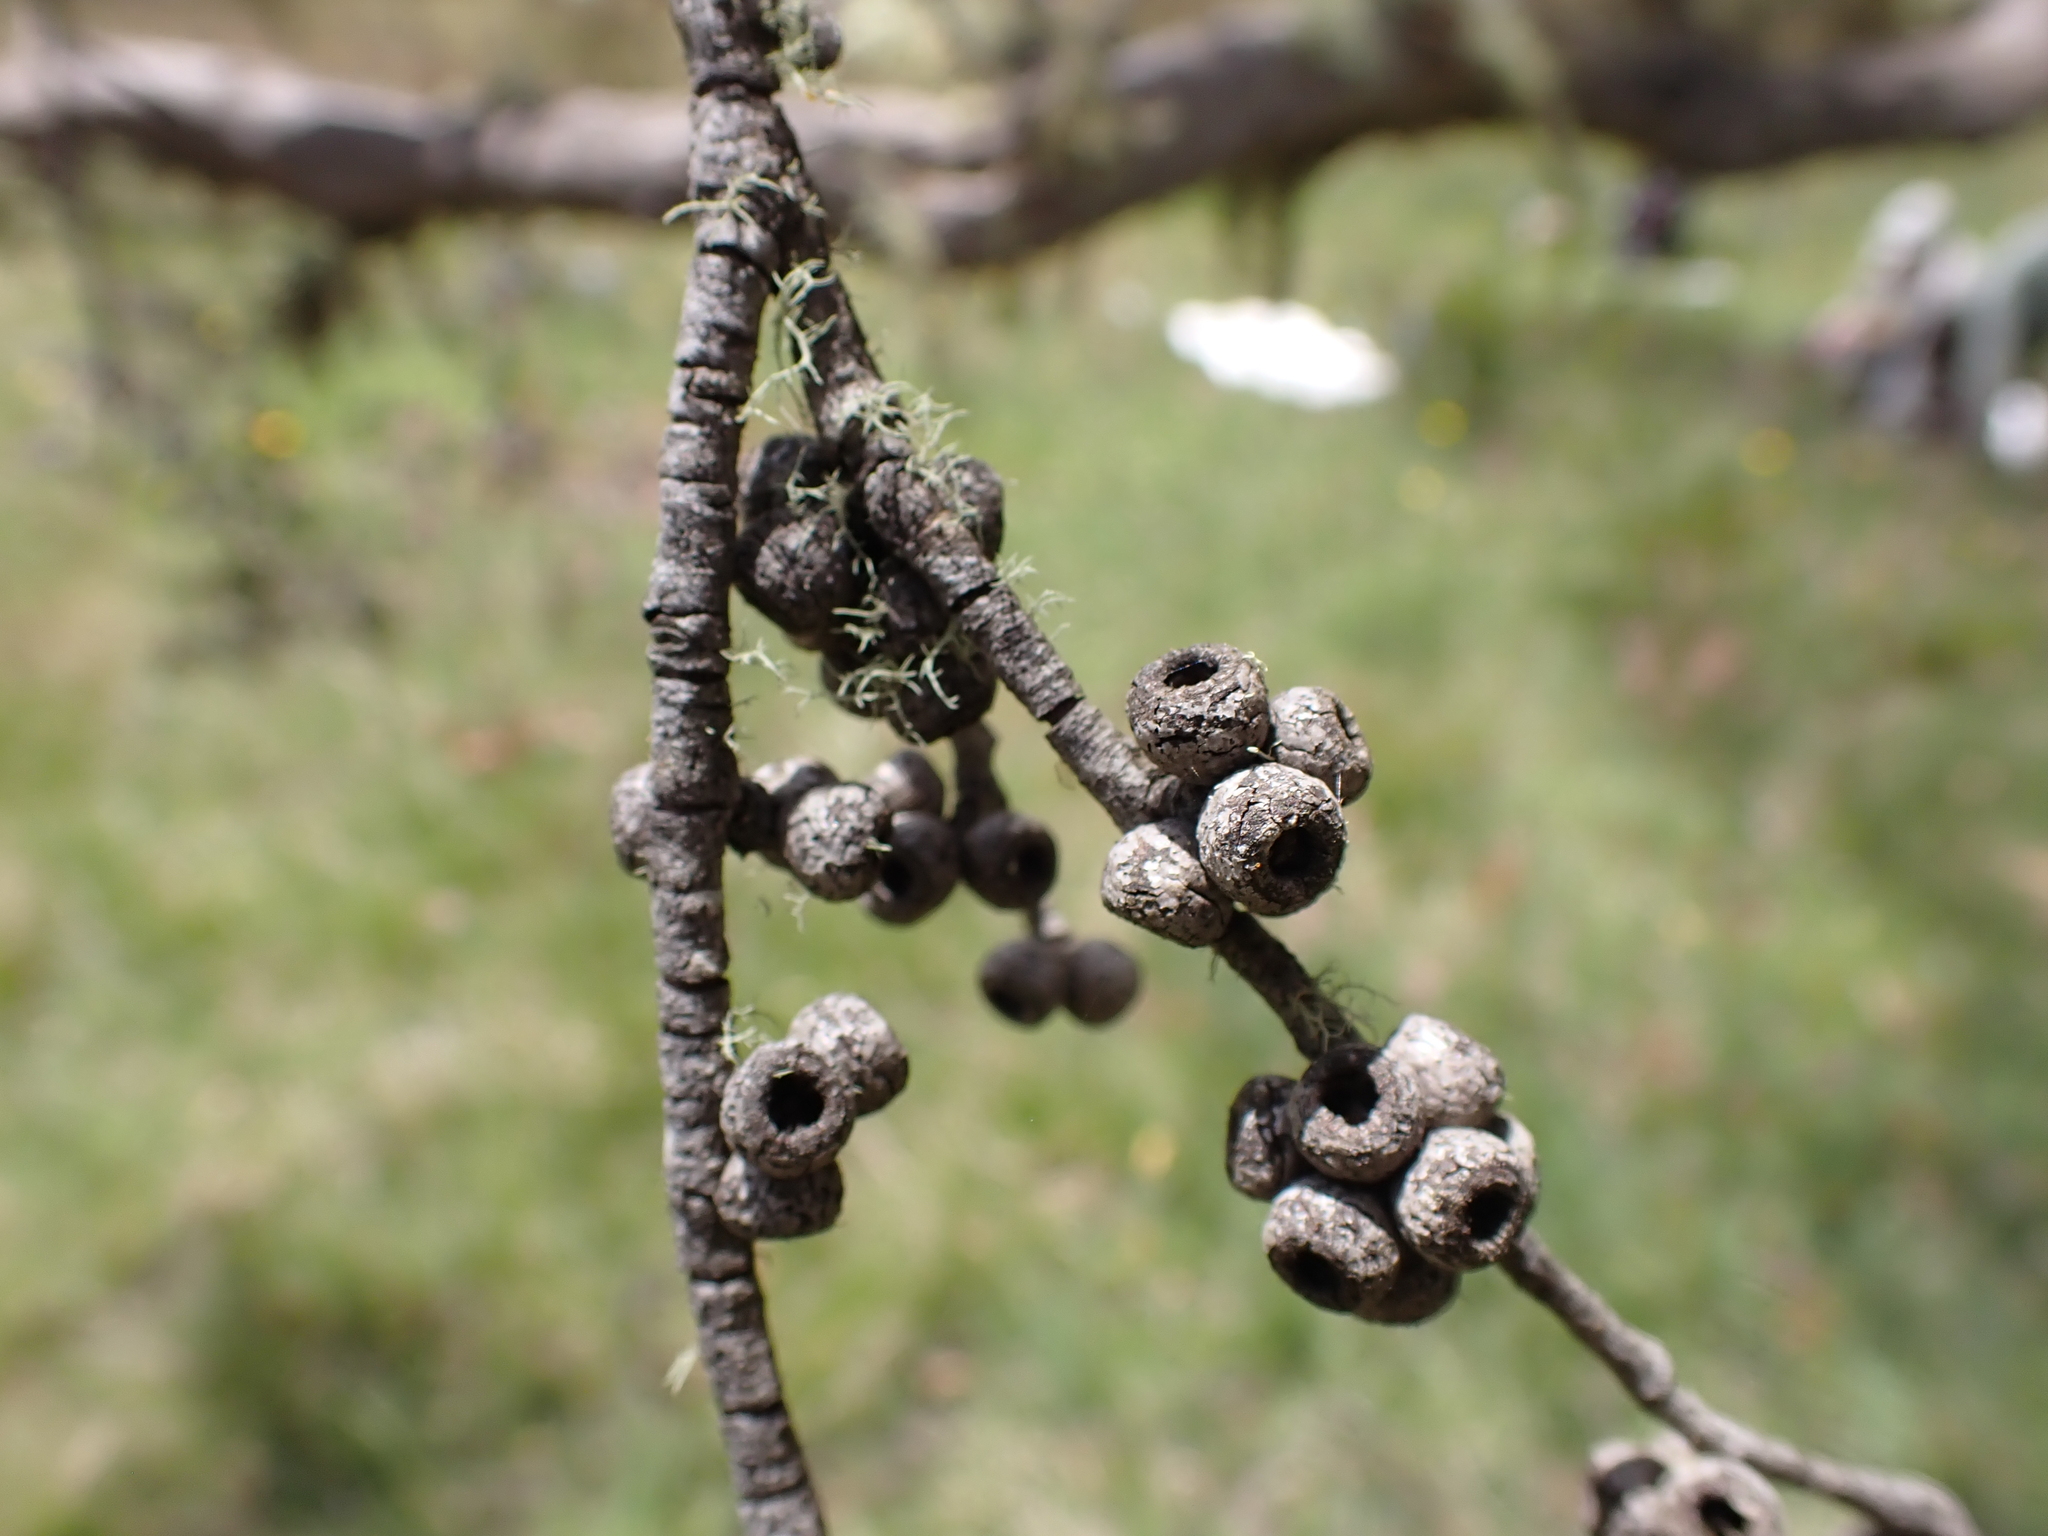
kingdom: Plantae
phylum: Tracheophyta
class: Magnoliopsida
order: Myrtales
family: Myrtaceae
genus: Eucalyptus
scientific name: Eucalyptus stellulata
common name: Black sallee
